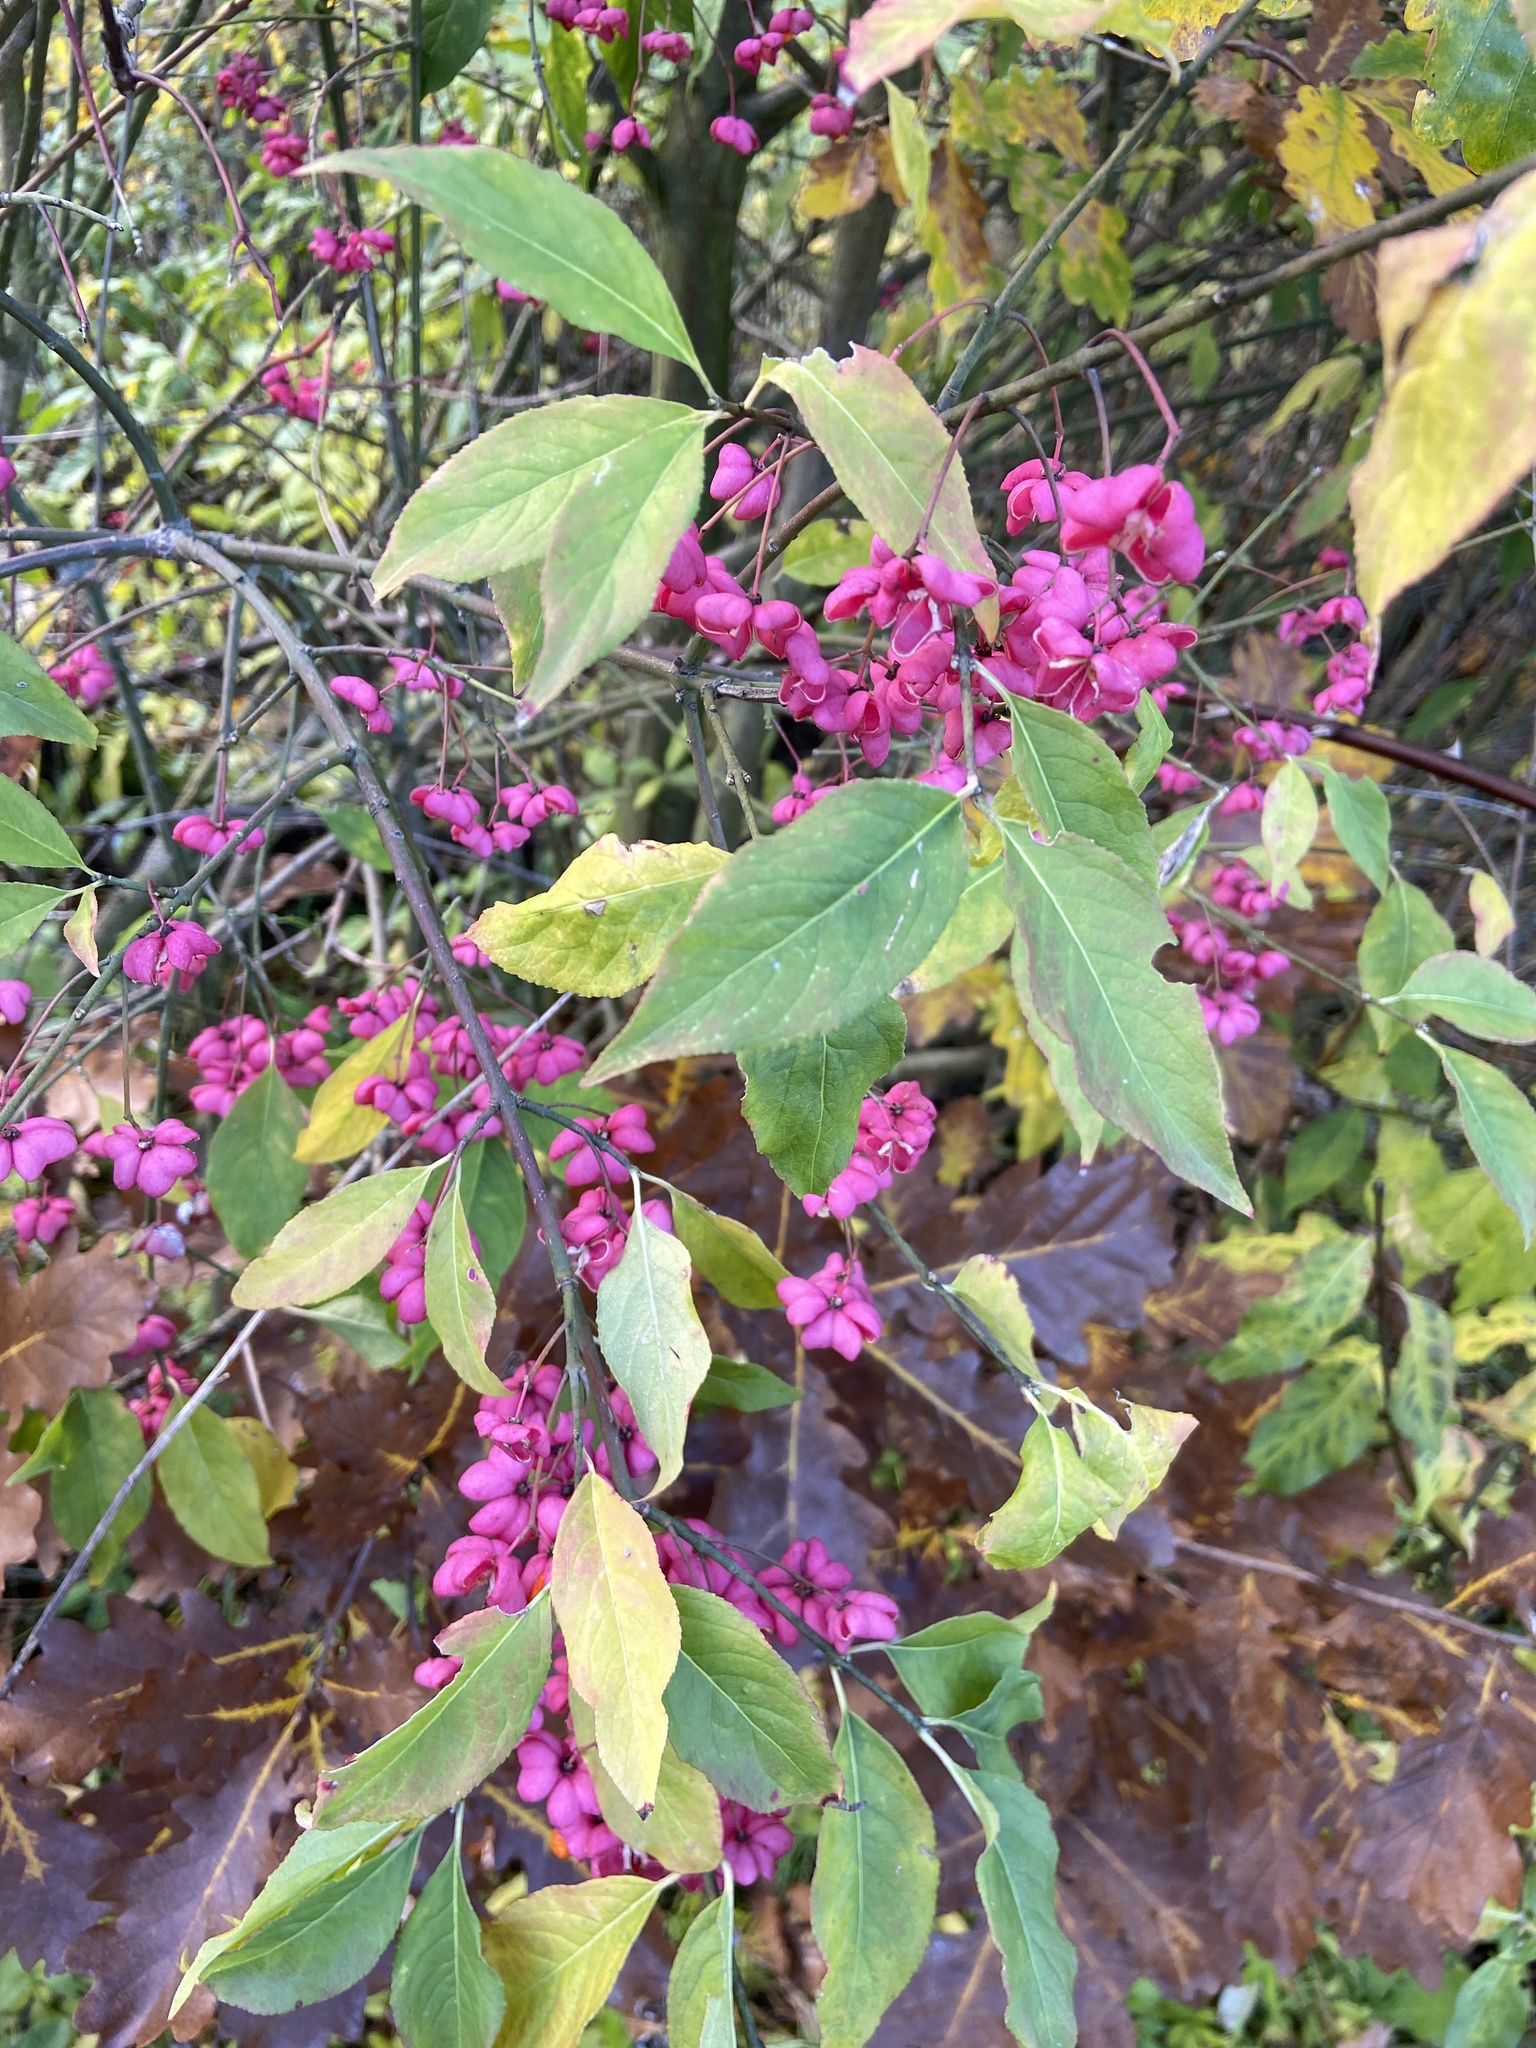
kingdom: Plantae
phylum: Tracheophyta
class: Magnoliopsida
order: Celastrales
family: Celastraceae
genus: Euonymus
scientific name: Euonymus europaeus
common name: Spindle
